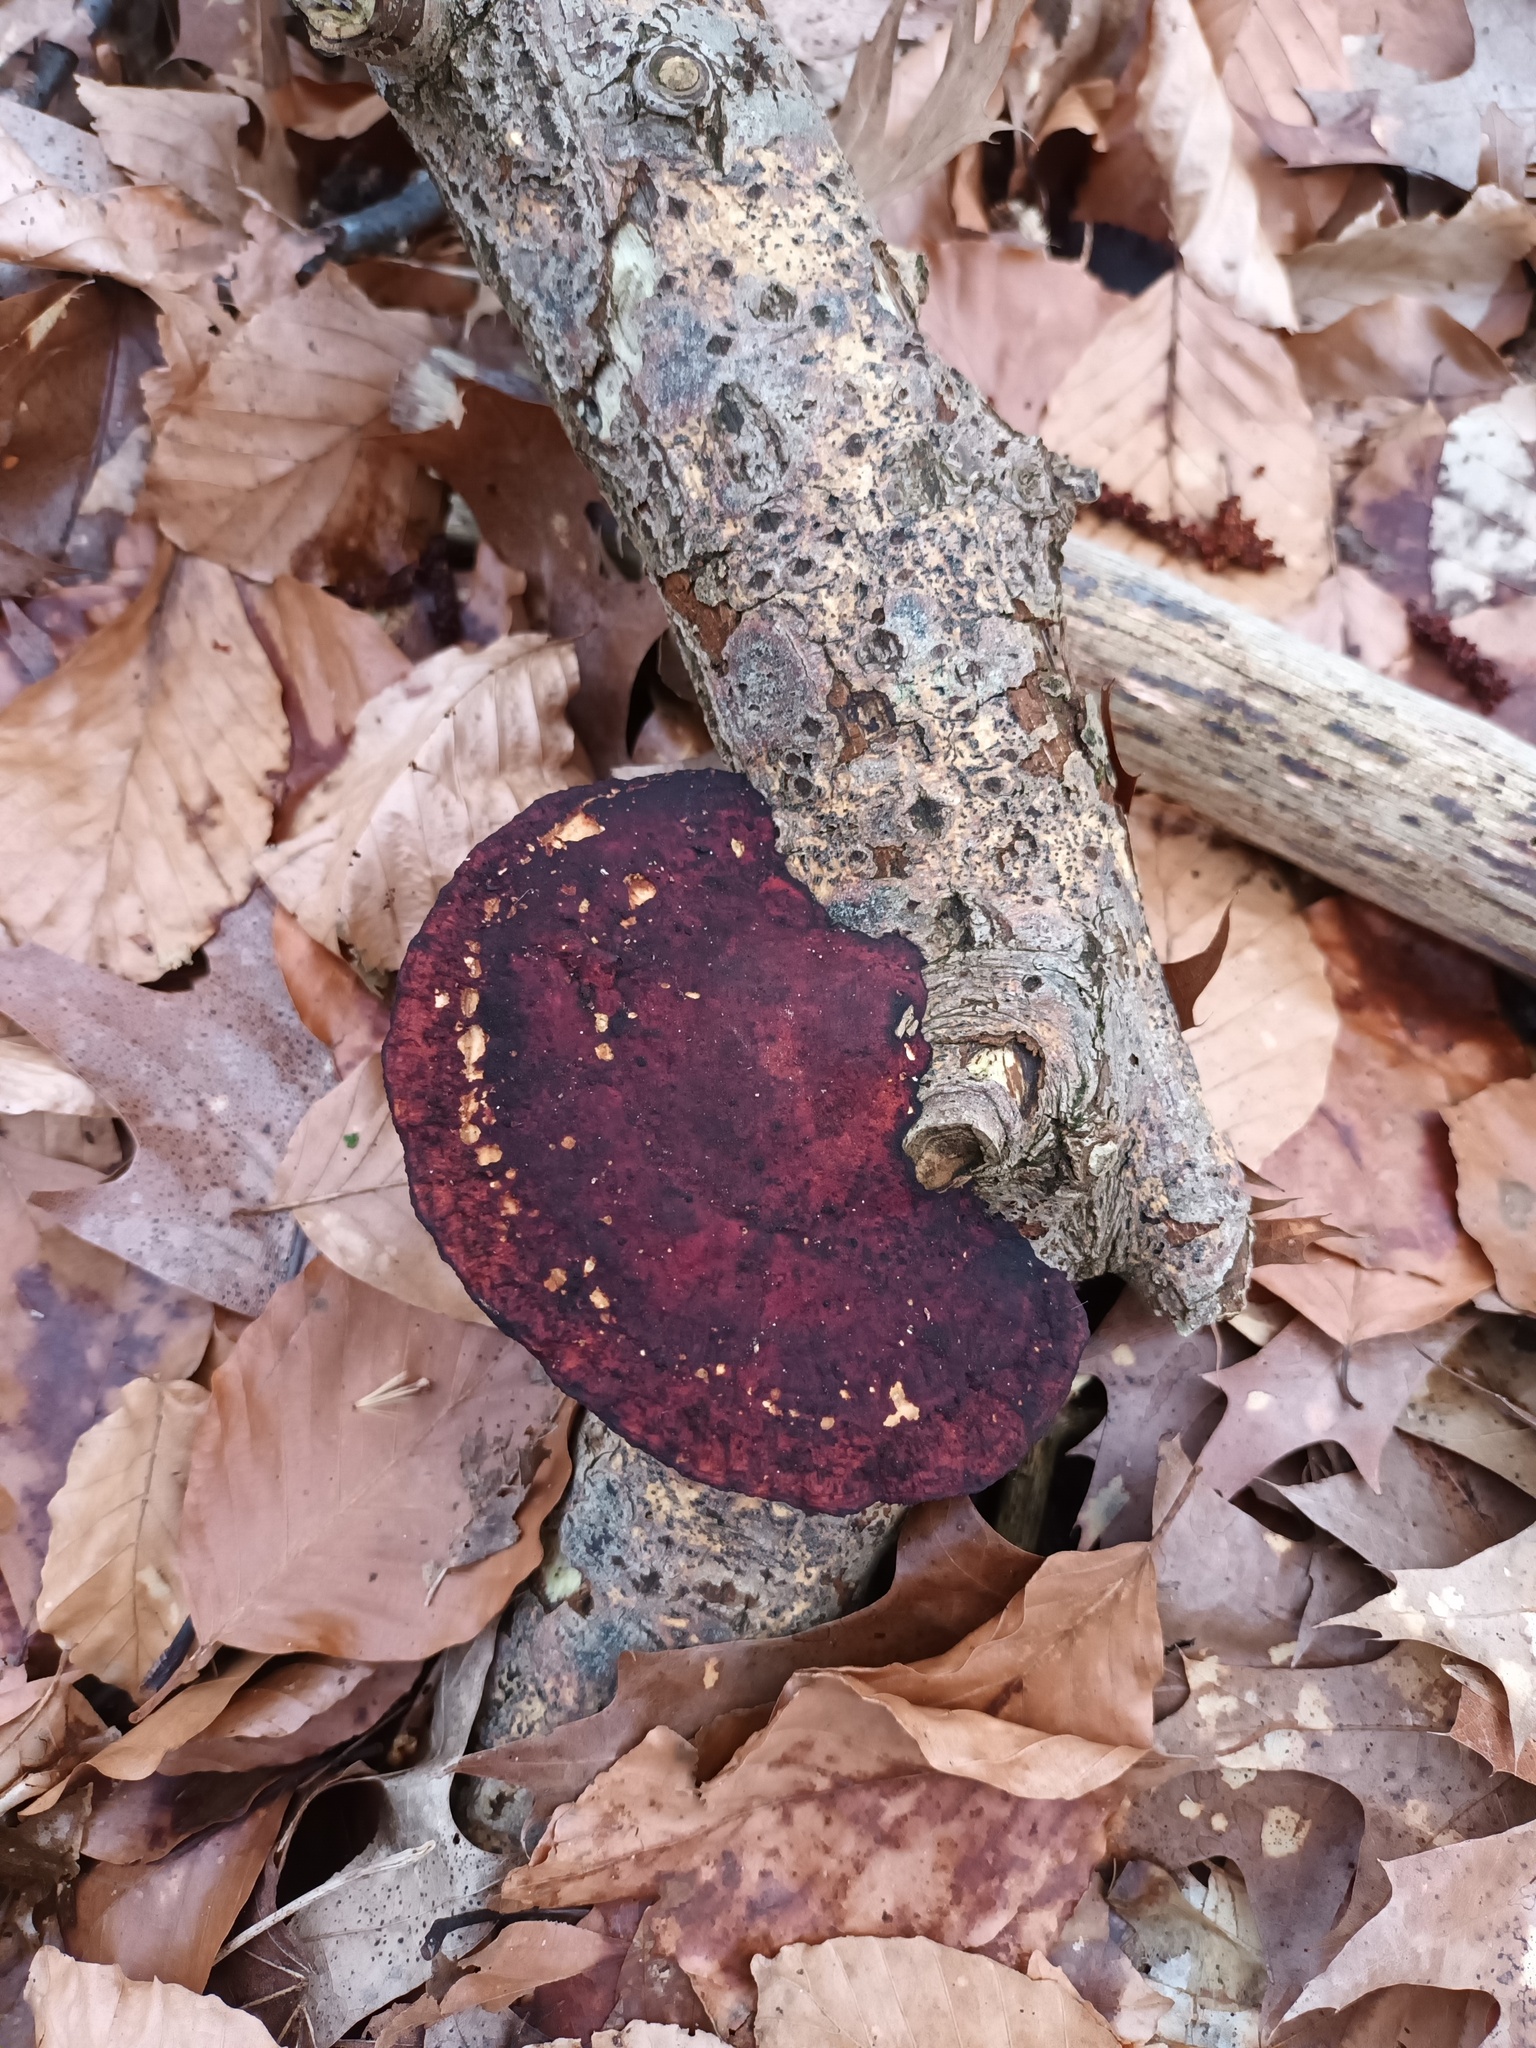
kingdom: Fungi
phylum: Basidiomycota
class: Agaricomycetes
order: Polyporales
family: Polyporaceae
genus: Daedaleopsis
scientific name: Daedaleopsis confragosa
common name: Blushing bracket
